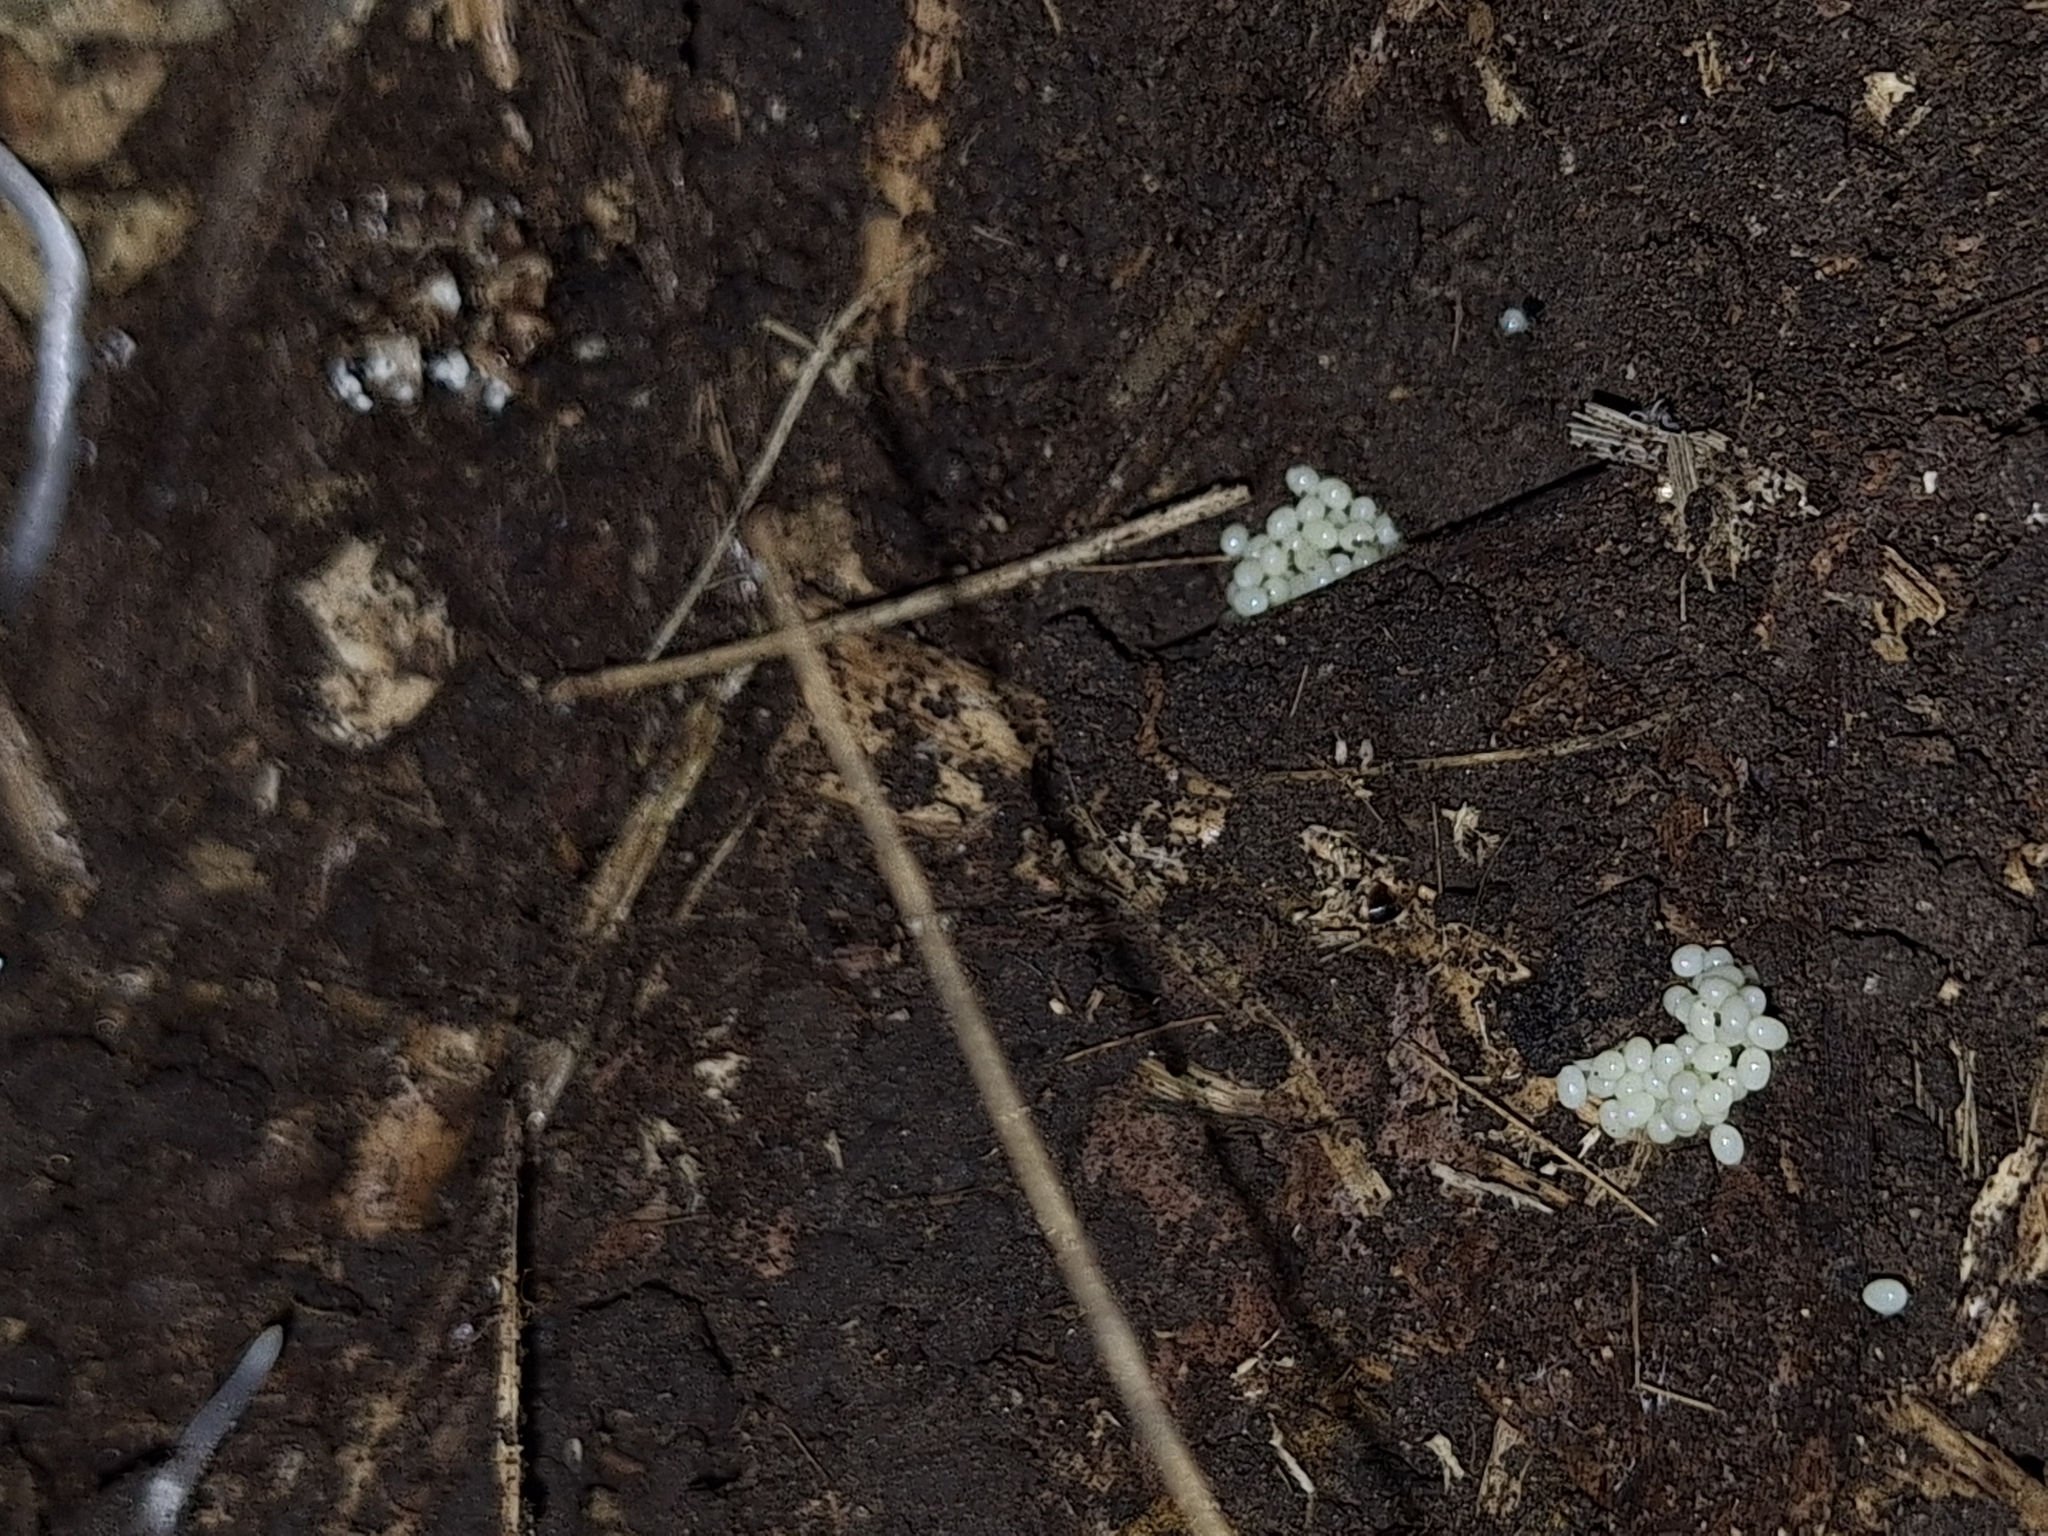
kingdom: Animalia
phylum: Arthropoda
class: Insecta
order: Dermaptera
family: Anisolabididae
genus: Euborellia
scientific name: Euborellia annulipes
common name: Ringlegged earwig
